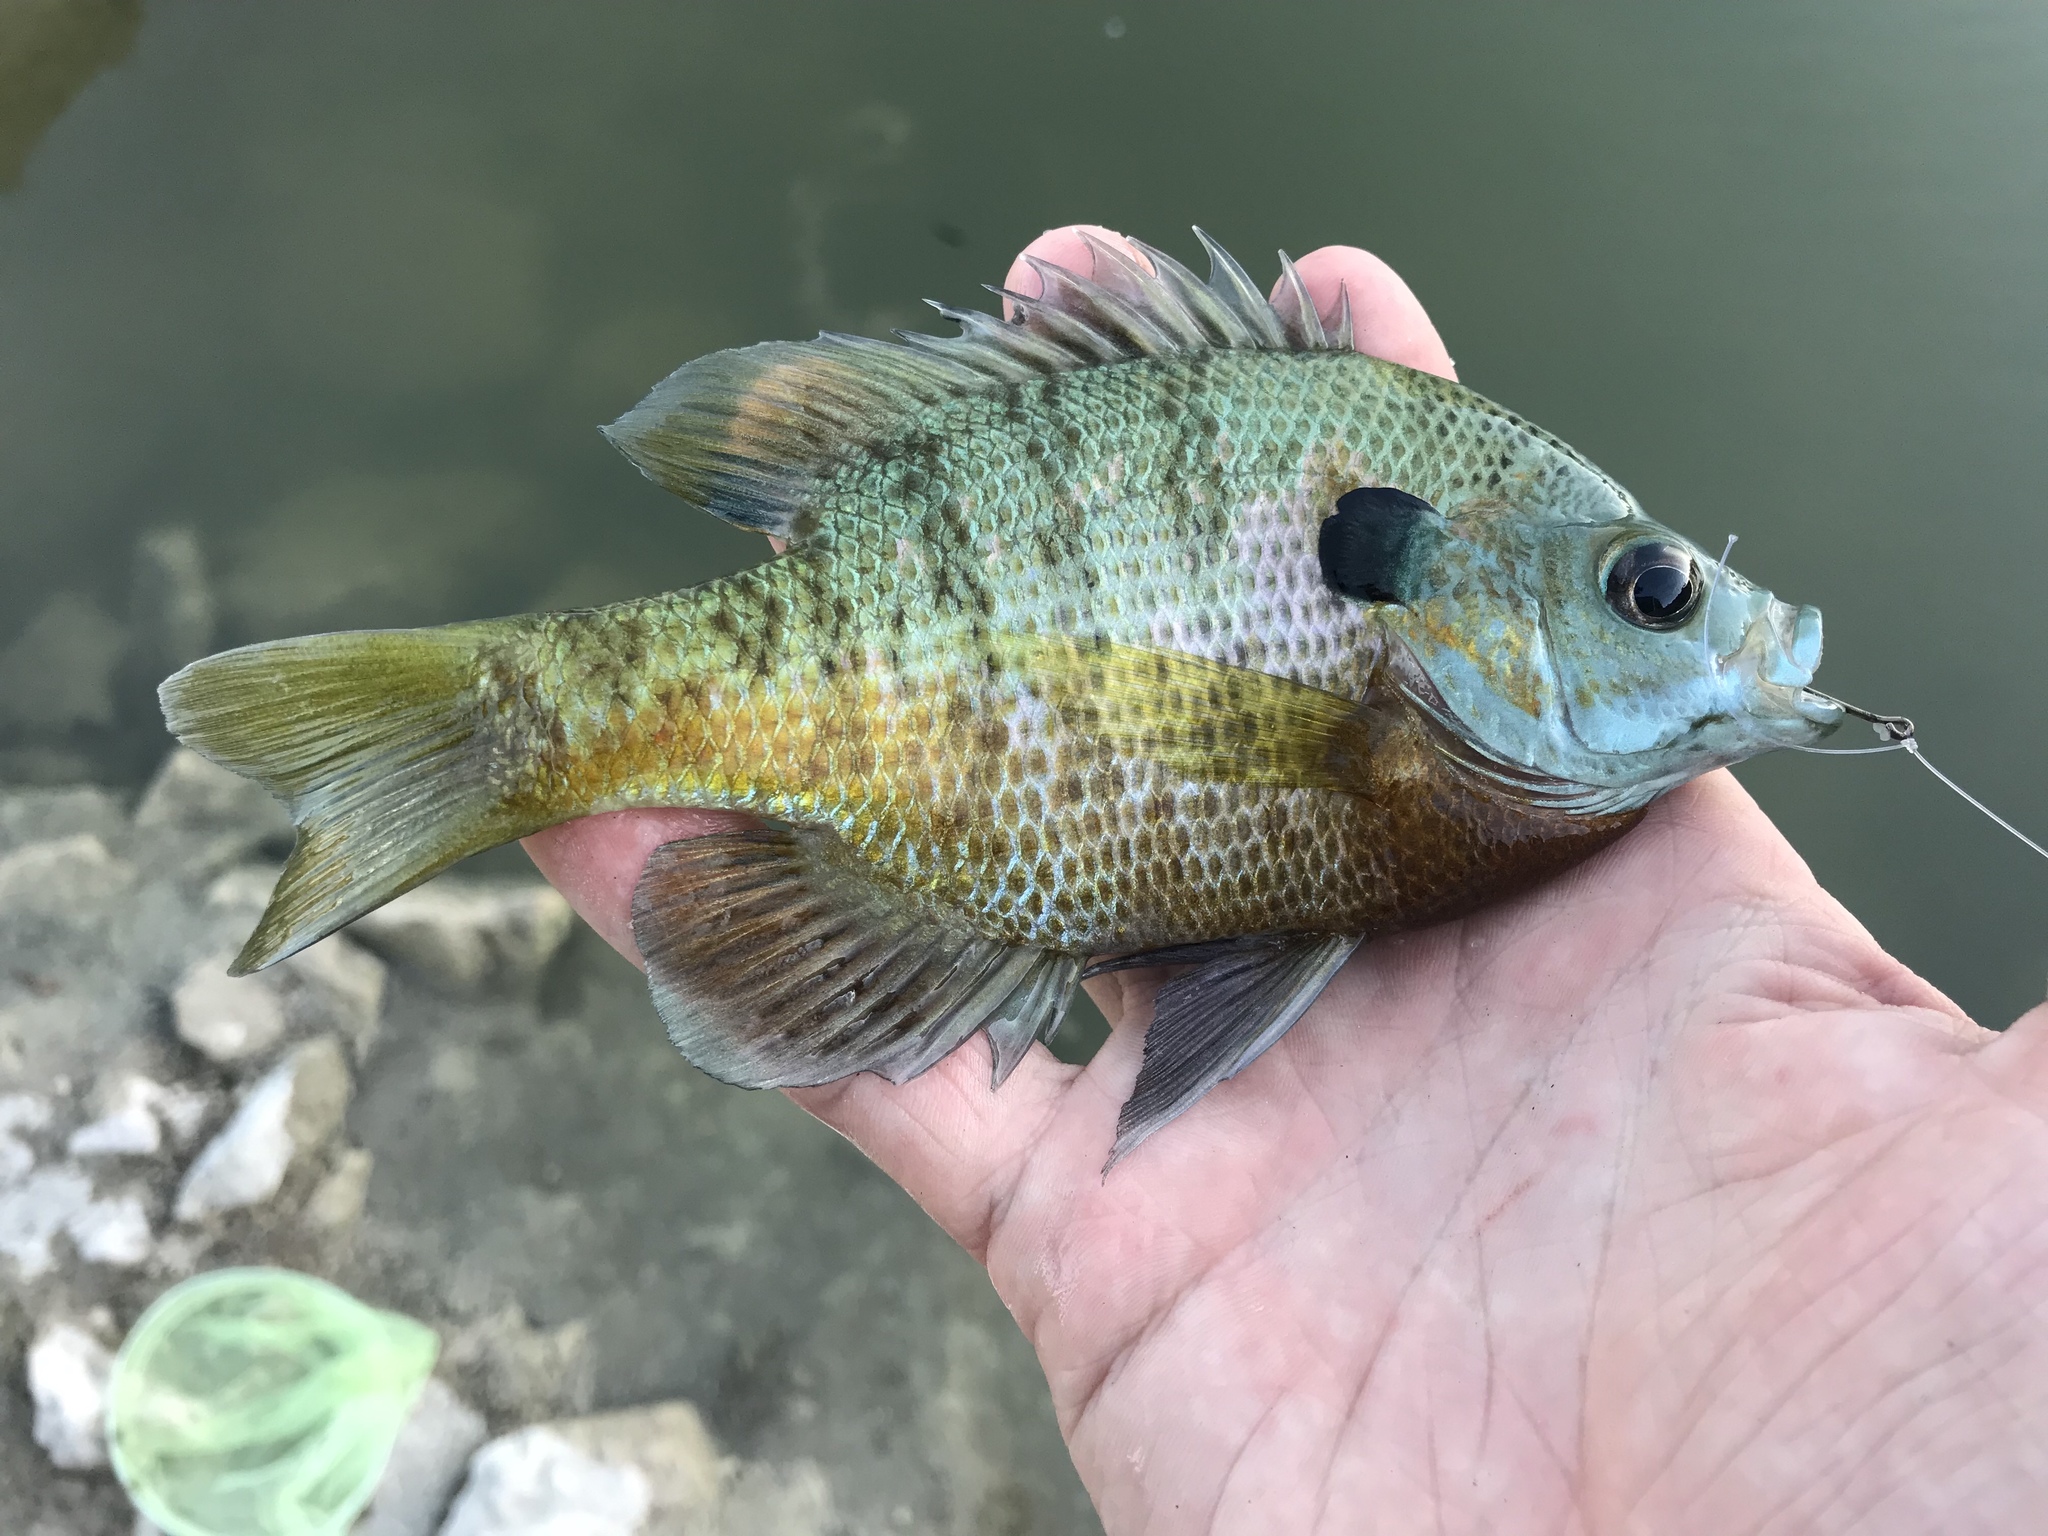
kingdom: Animalia
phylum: Chordata
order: Perciformes
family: Centrarchidae
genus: Lepomis
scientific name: Lepomis macrochirus
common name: Bluegill
